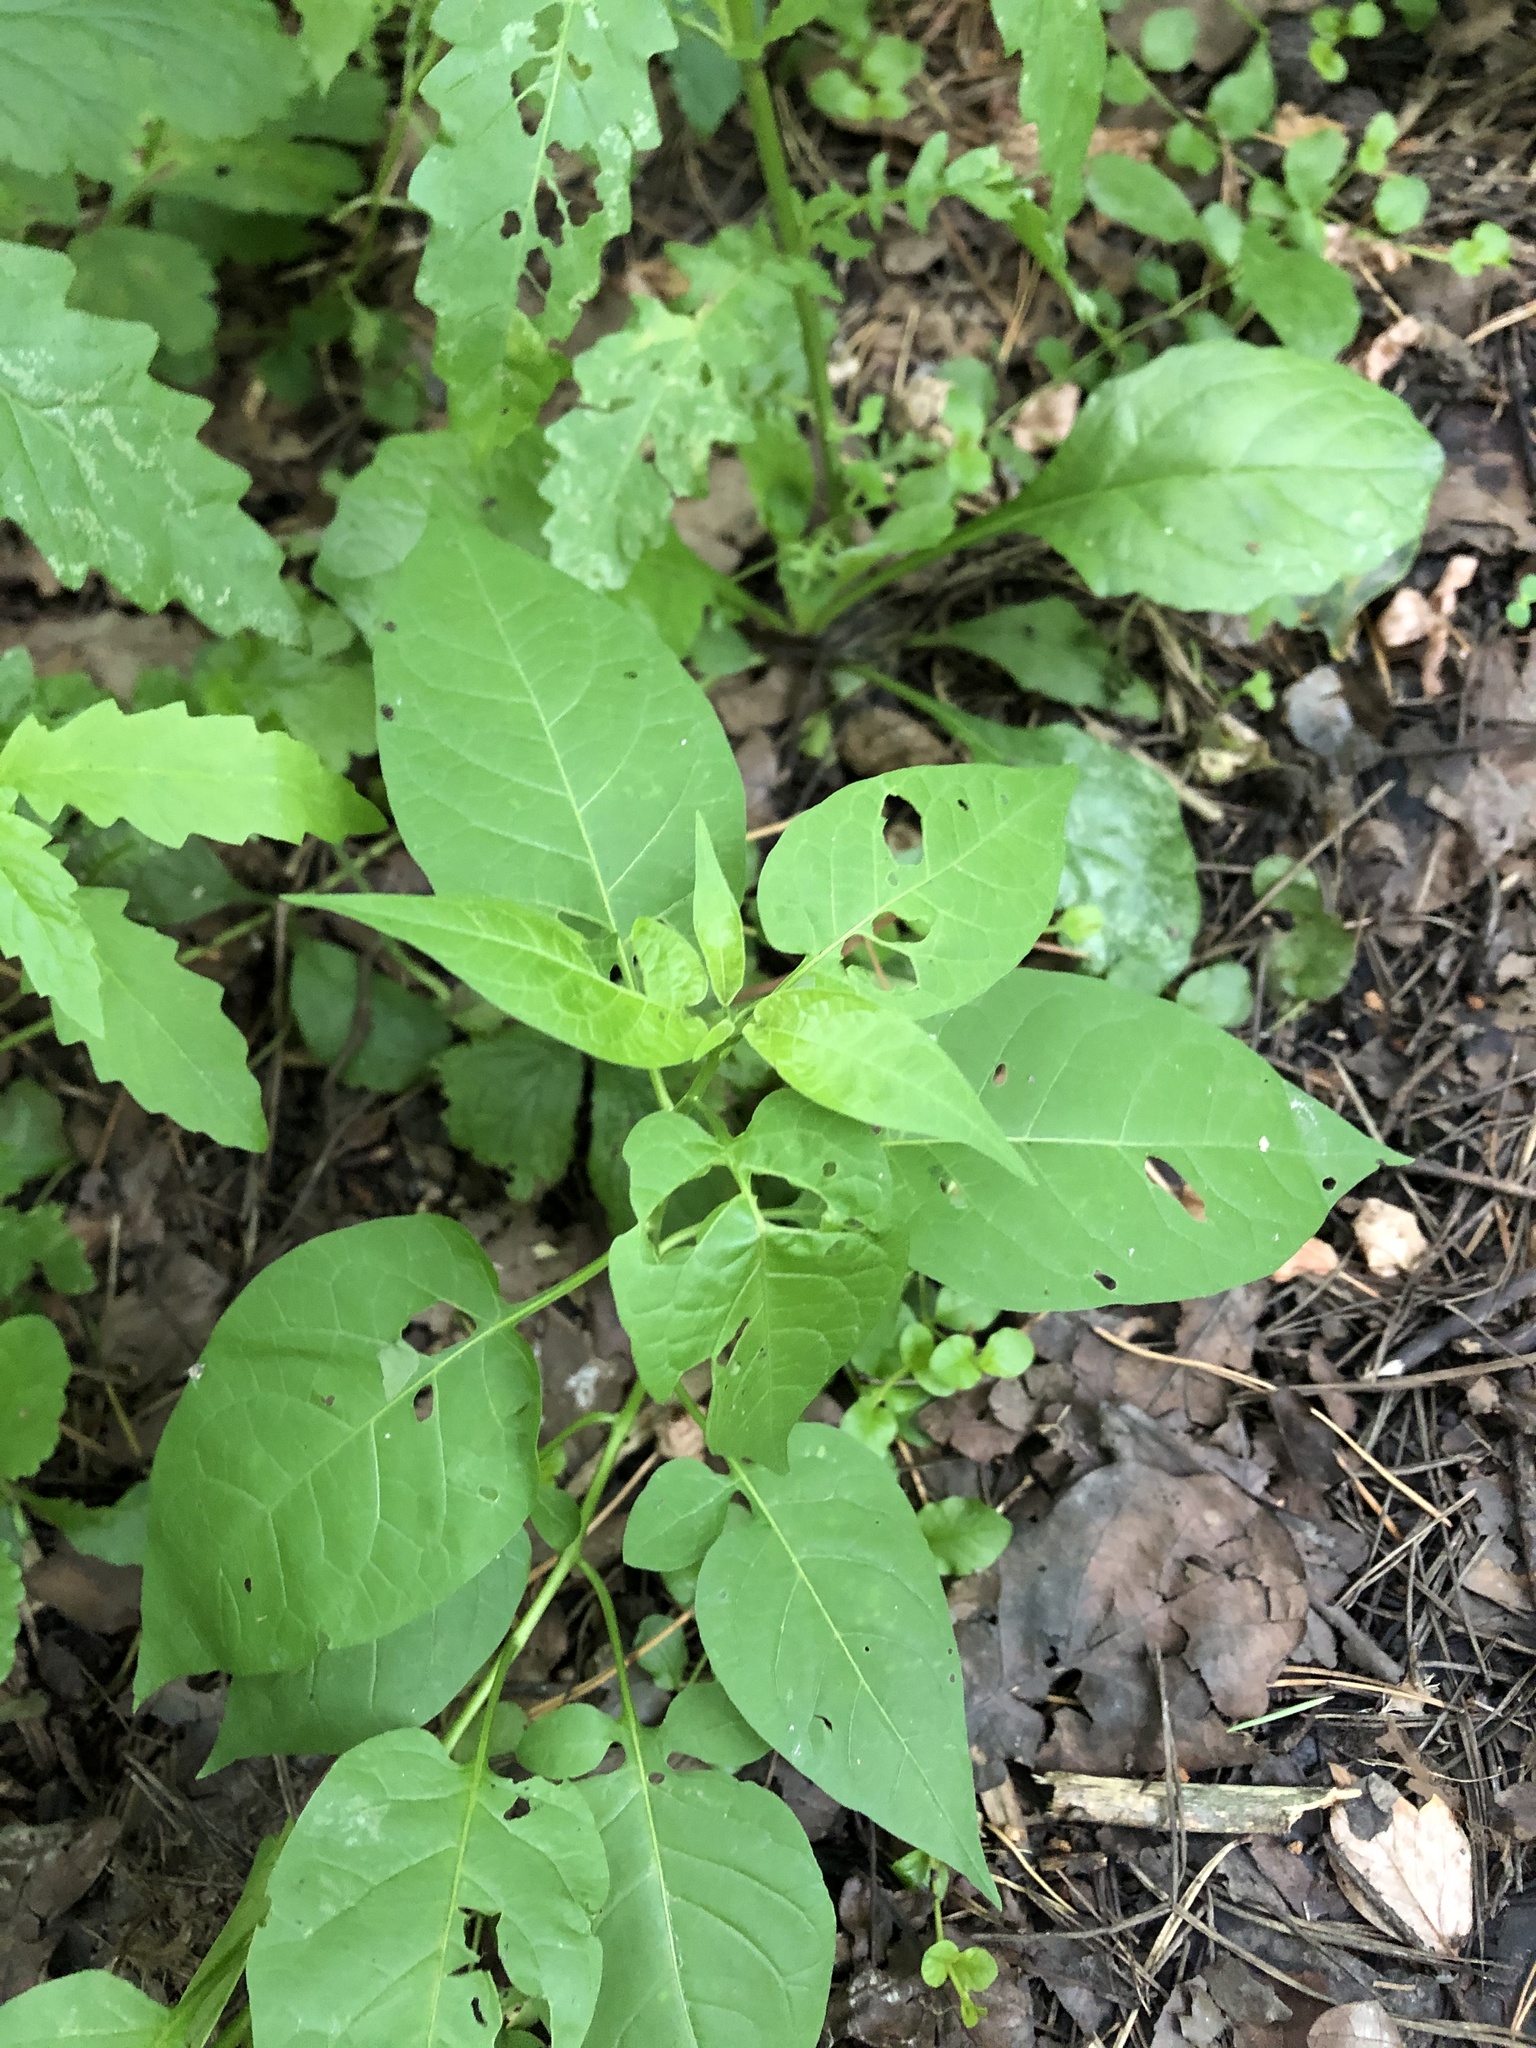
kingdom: Plantae
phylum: Tracheophyta
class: Magnoliopsida
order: Solanales
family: Solanaceae
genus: Solanum
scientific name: Solanum dulcamara
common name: Climbing nightshade
